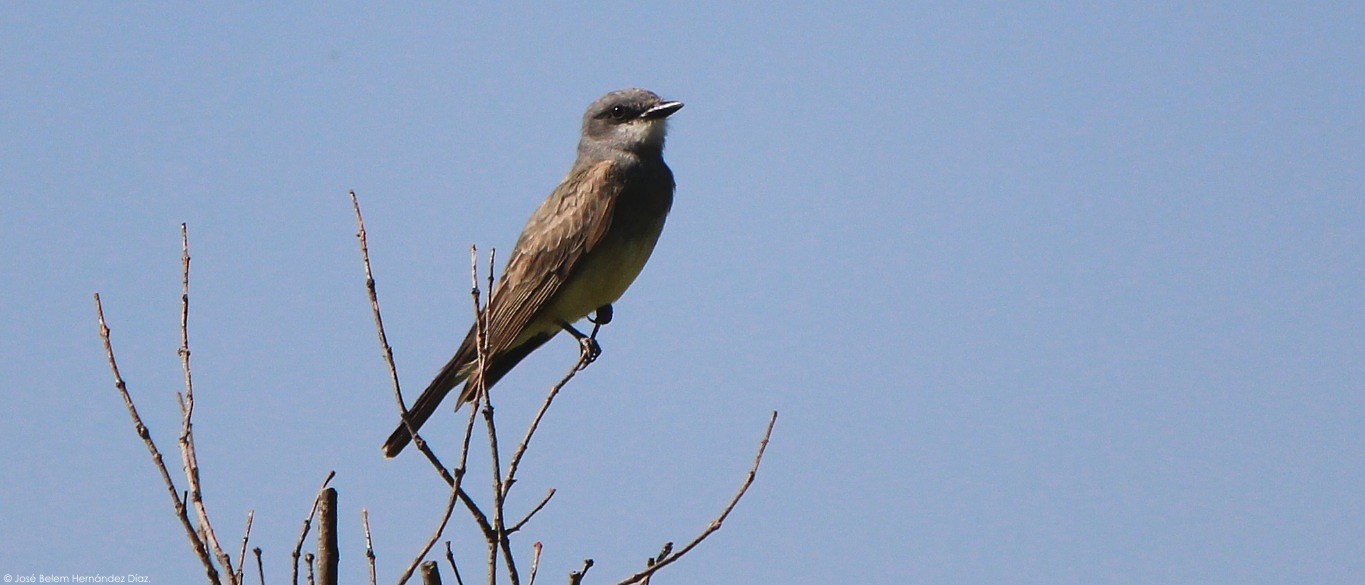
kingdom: Animalia
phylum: Chordata
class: Aves
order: Passeriformes
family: Tyrannidae
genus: Tyrannus
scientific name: Tyrannus vociferans
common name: Cassin's kingbird
